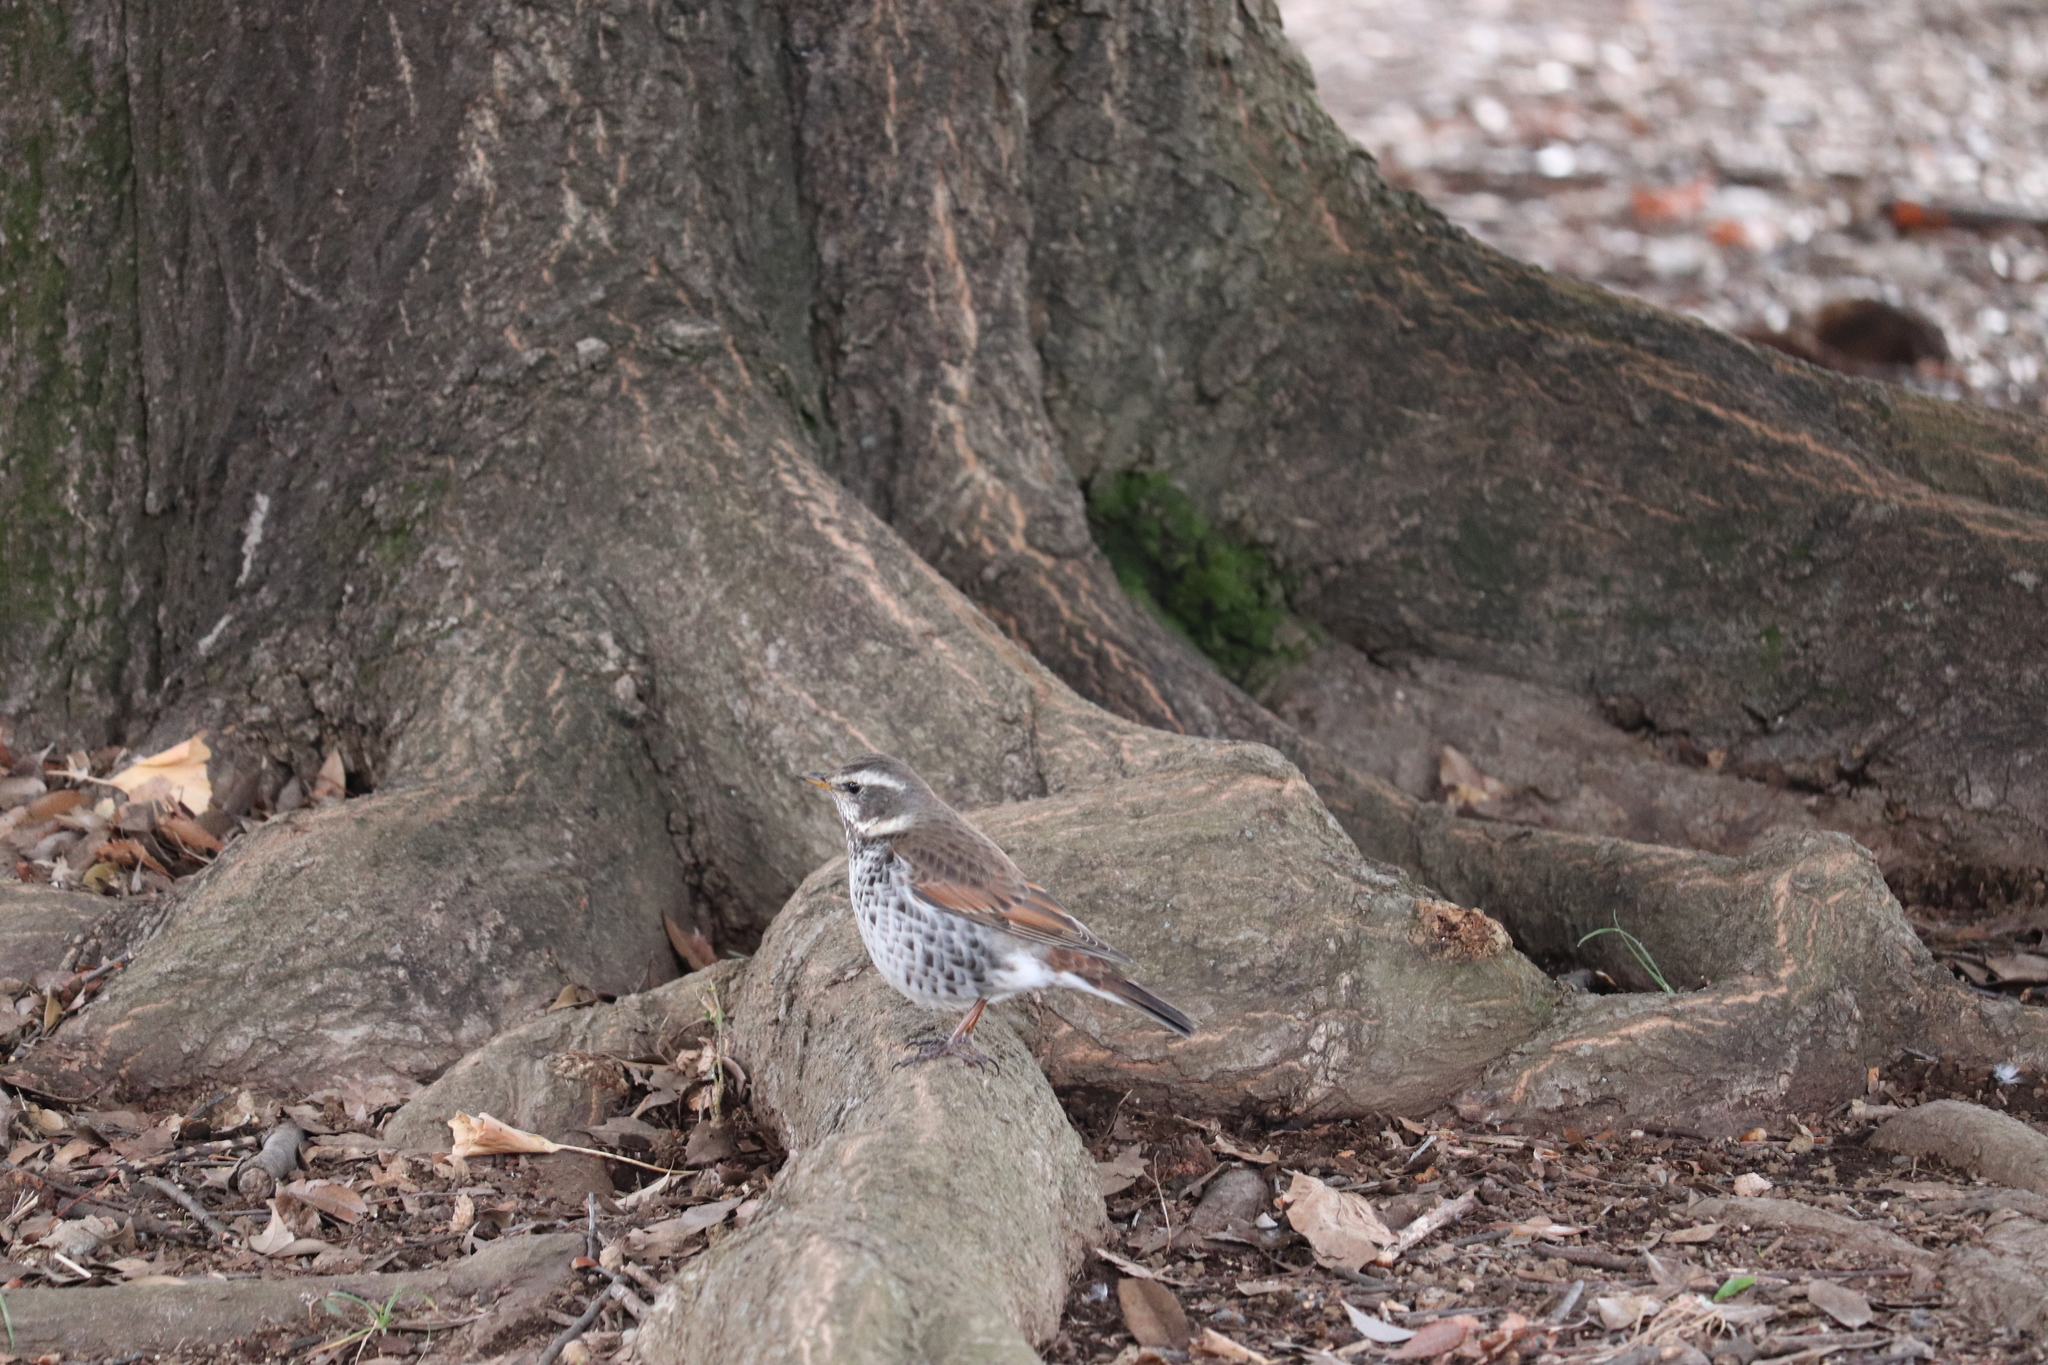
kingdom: Animalia
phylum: Chordata
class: Aves
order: Passeriformes
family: Turdidae
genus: Turdus
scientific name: Turdus eunomus
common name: Dusky thrush
